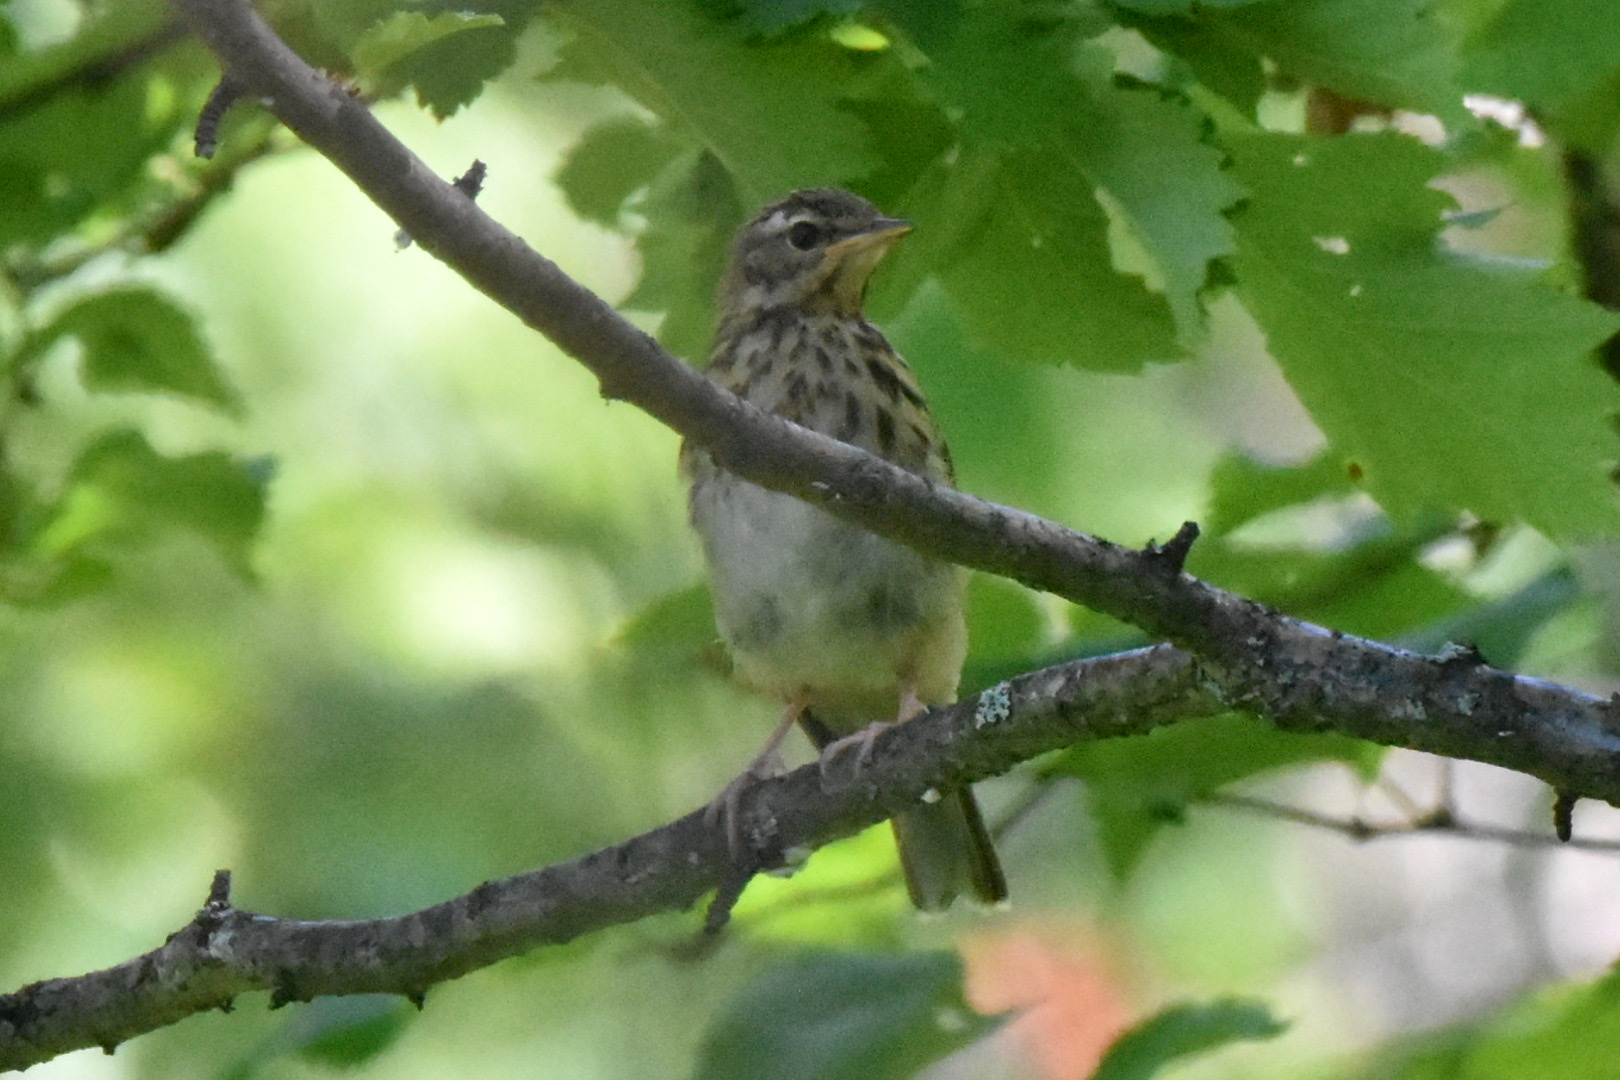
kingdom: Animalia
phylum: Chordata
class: Aves
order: Passeriformes
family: Motacillidae
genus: Anthus
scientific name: Anthus hodgsoni
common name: Olive-backed pipit
